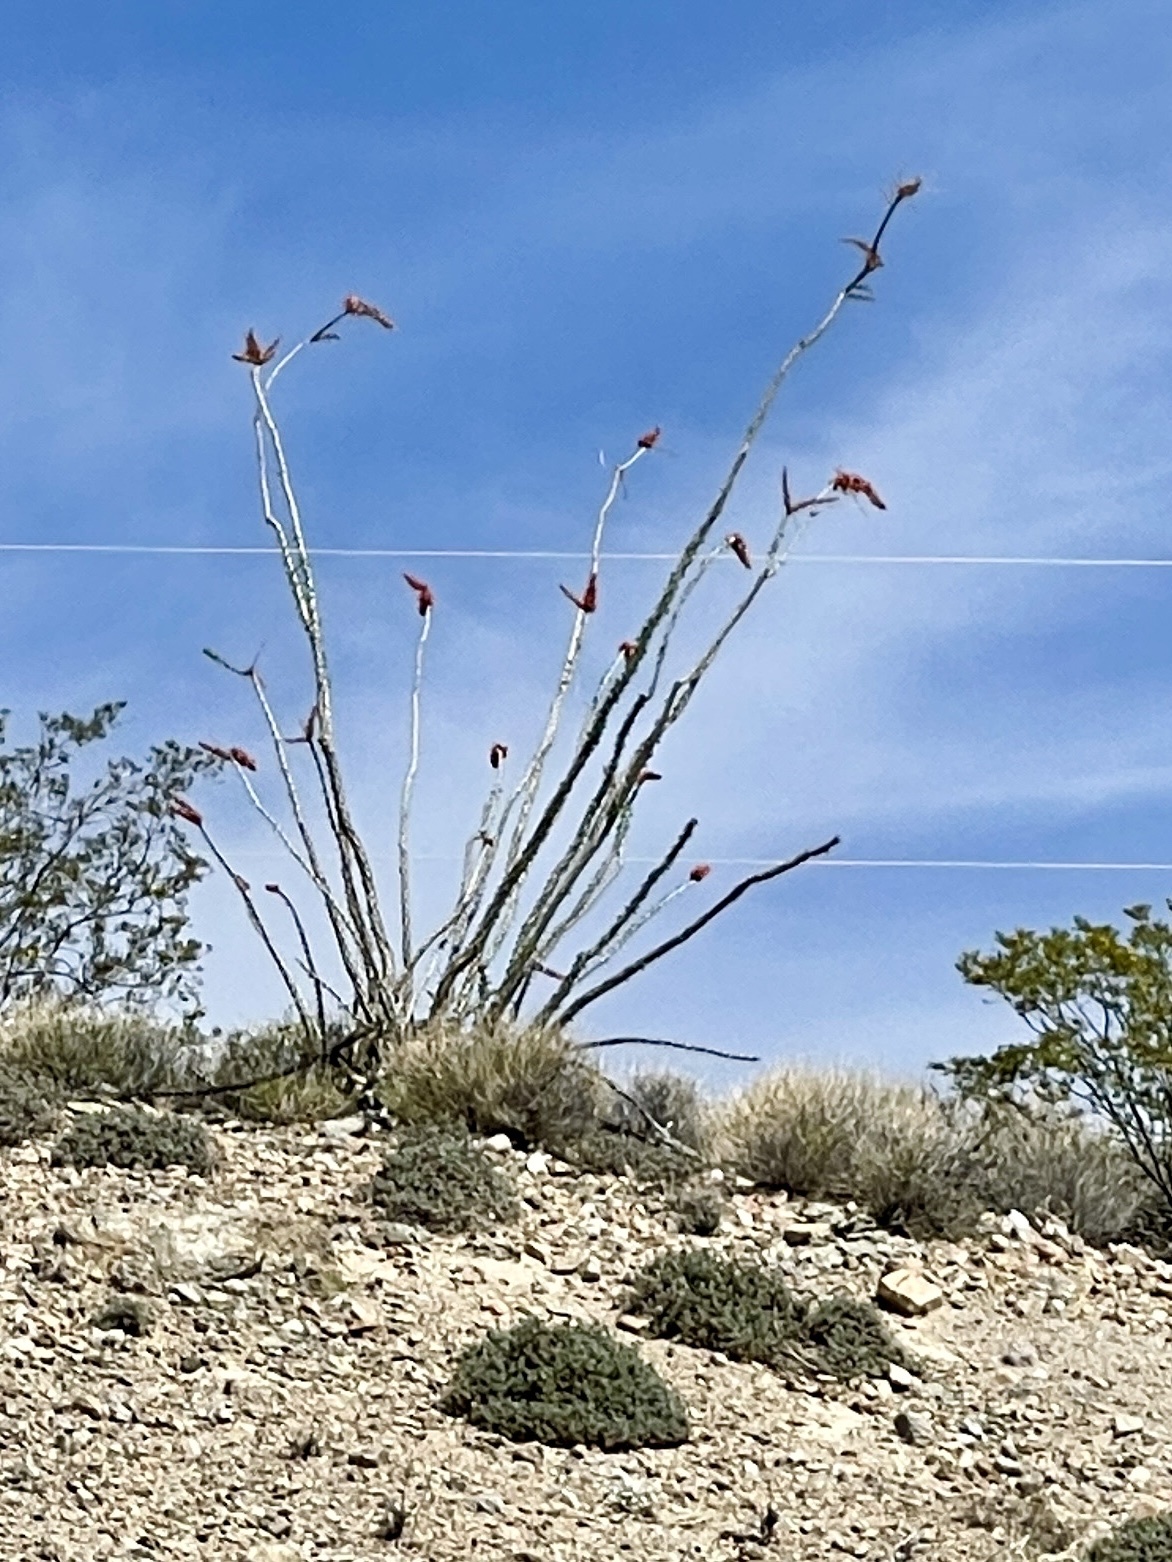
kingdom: Plantae
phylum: Tracheophyta
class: Magnoliopsida
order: Ericales
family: Fouquieriaceae
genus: Fouquieria
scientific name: Fouquieria splendens
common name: Vine-cactus
